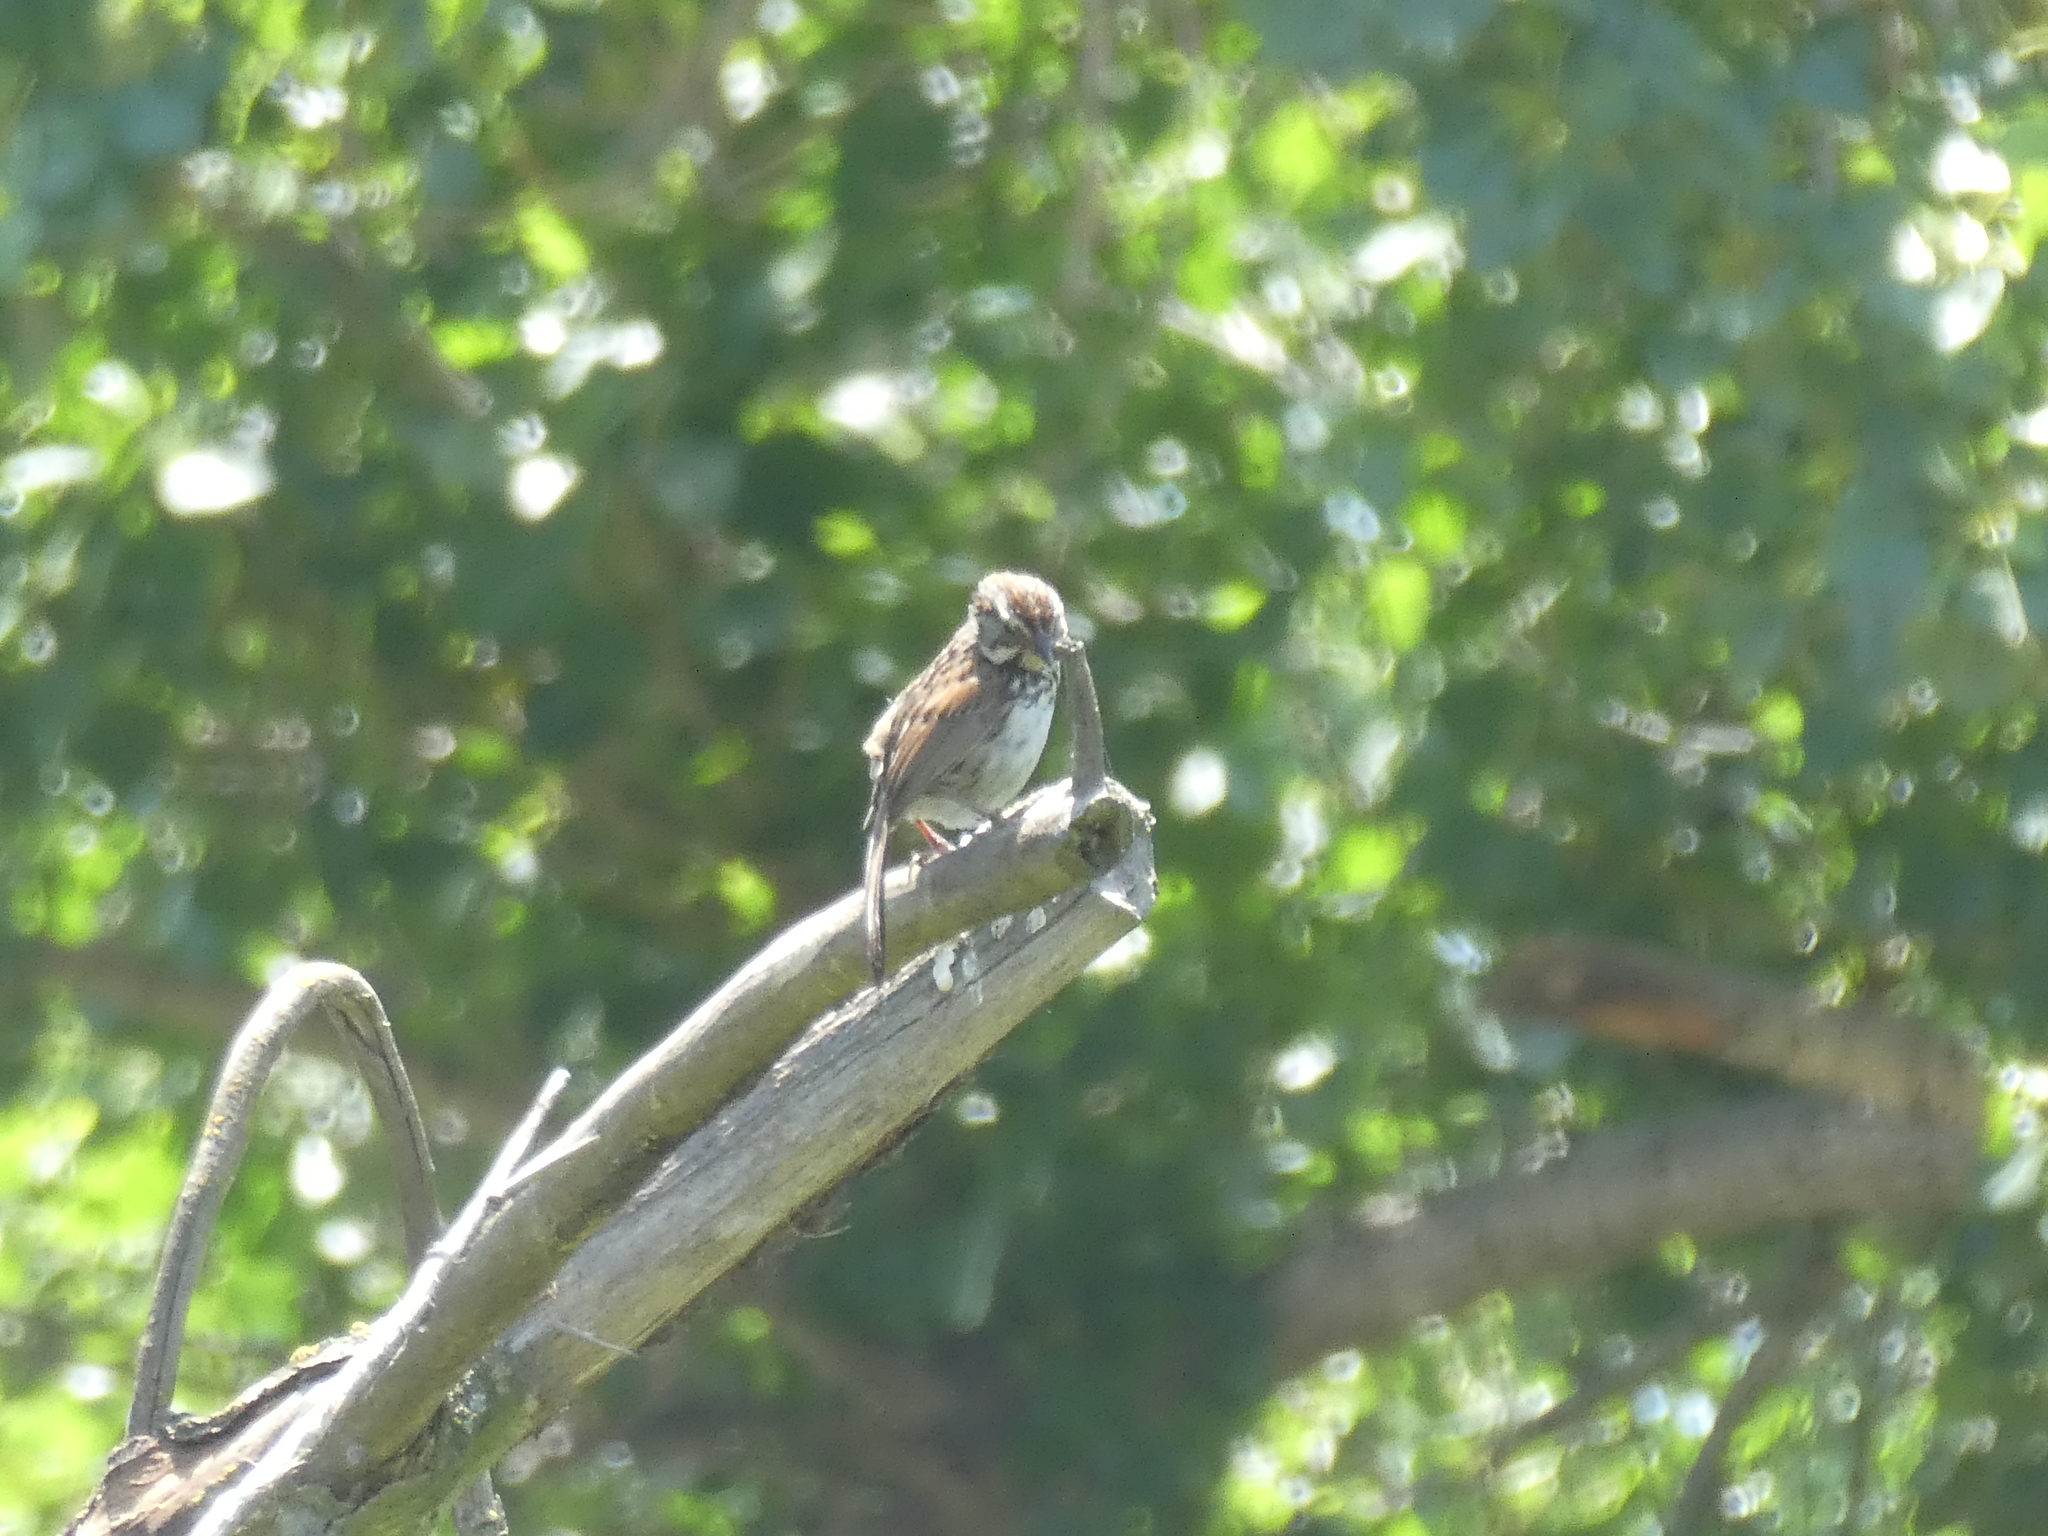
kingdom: Animalia
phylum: Chordata
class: Aves
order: Passeriformes
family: Passerellidae
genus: Melospiza
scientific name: Melospiza melodia
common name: Song sparrow
